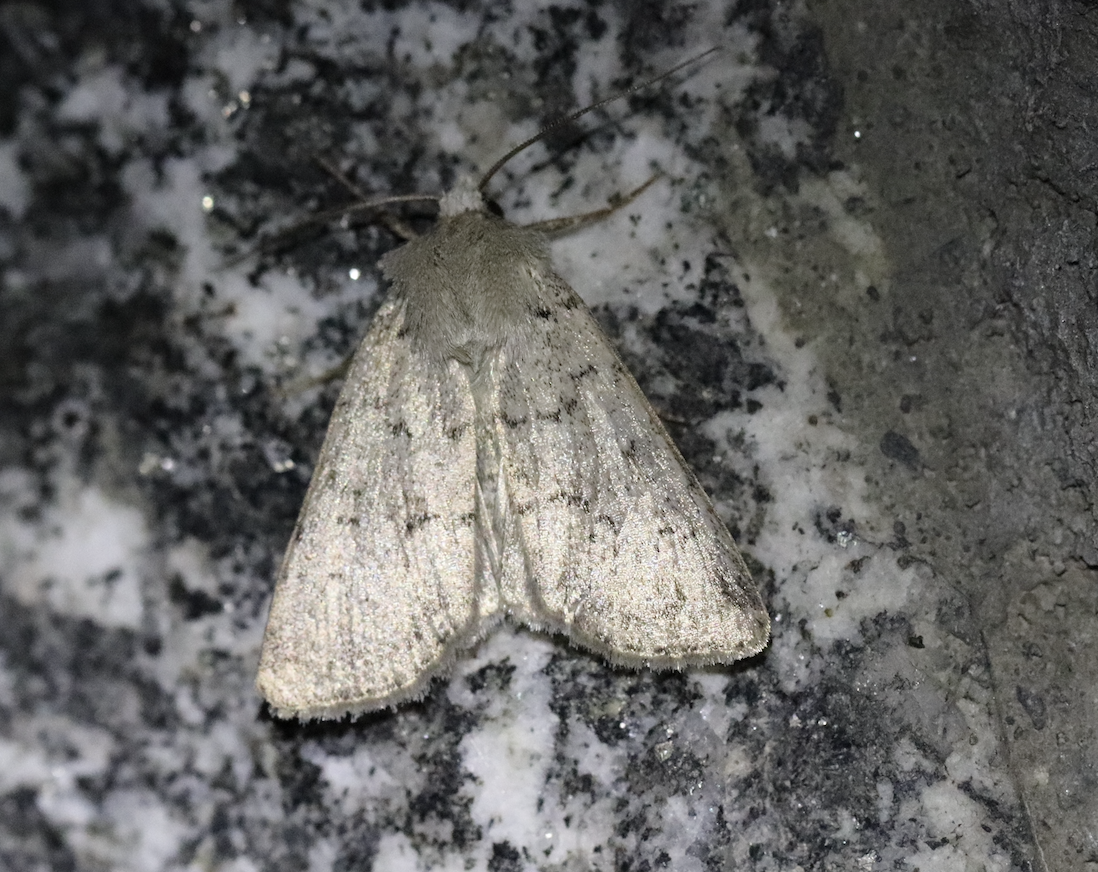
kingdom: Animalia
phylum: Arthropoda
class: Insecta
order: Lepidoptera
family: Noctuidae
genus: Epipsilia
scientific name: Epipsilia grisescens
